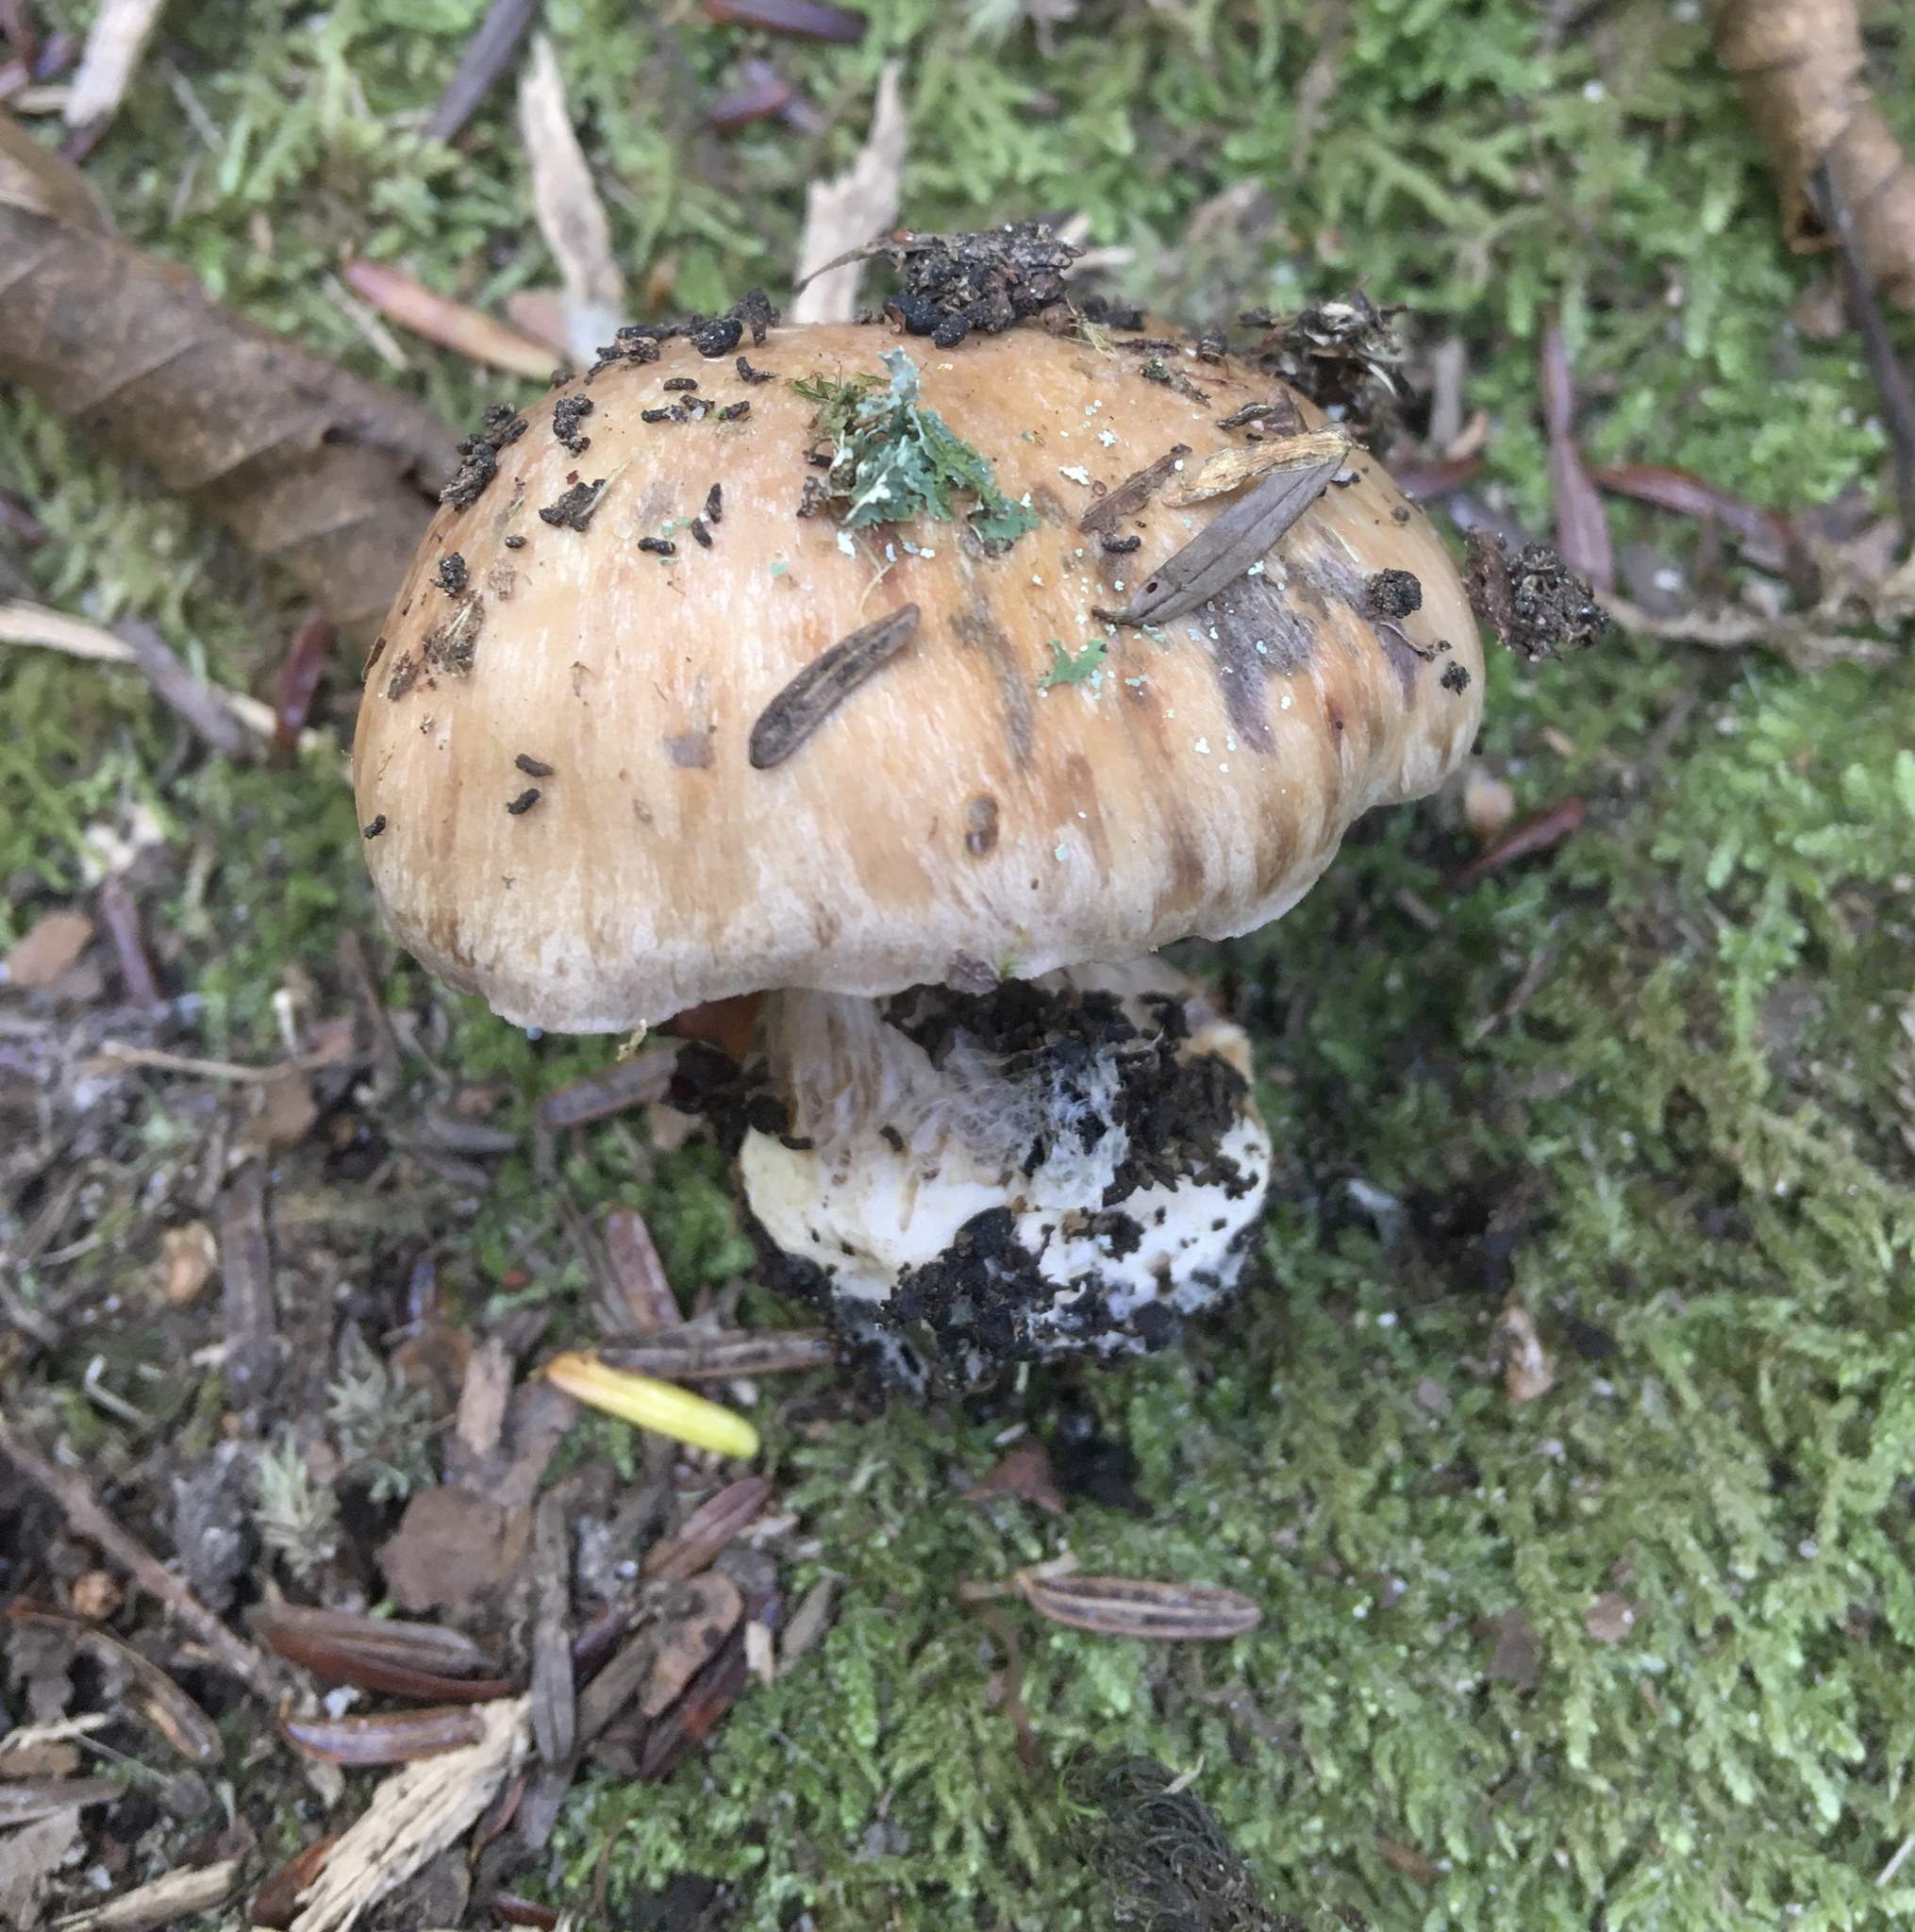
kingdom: Fungi
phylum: Basidiomycota
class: Agaricomycetes
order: Agaricales
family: Cortinariaceae
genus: Thaxterogaster
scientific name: Thaxterogaster purpurascens
